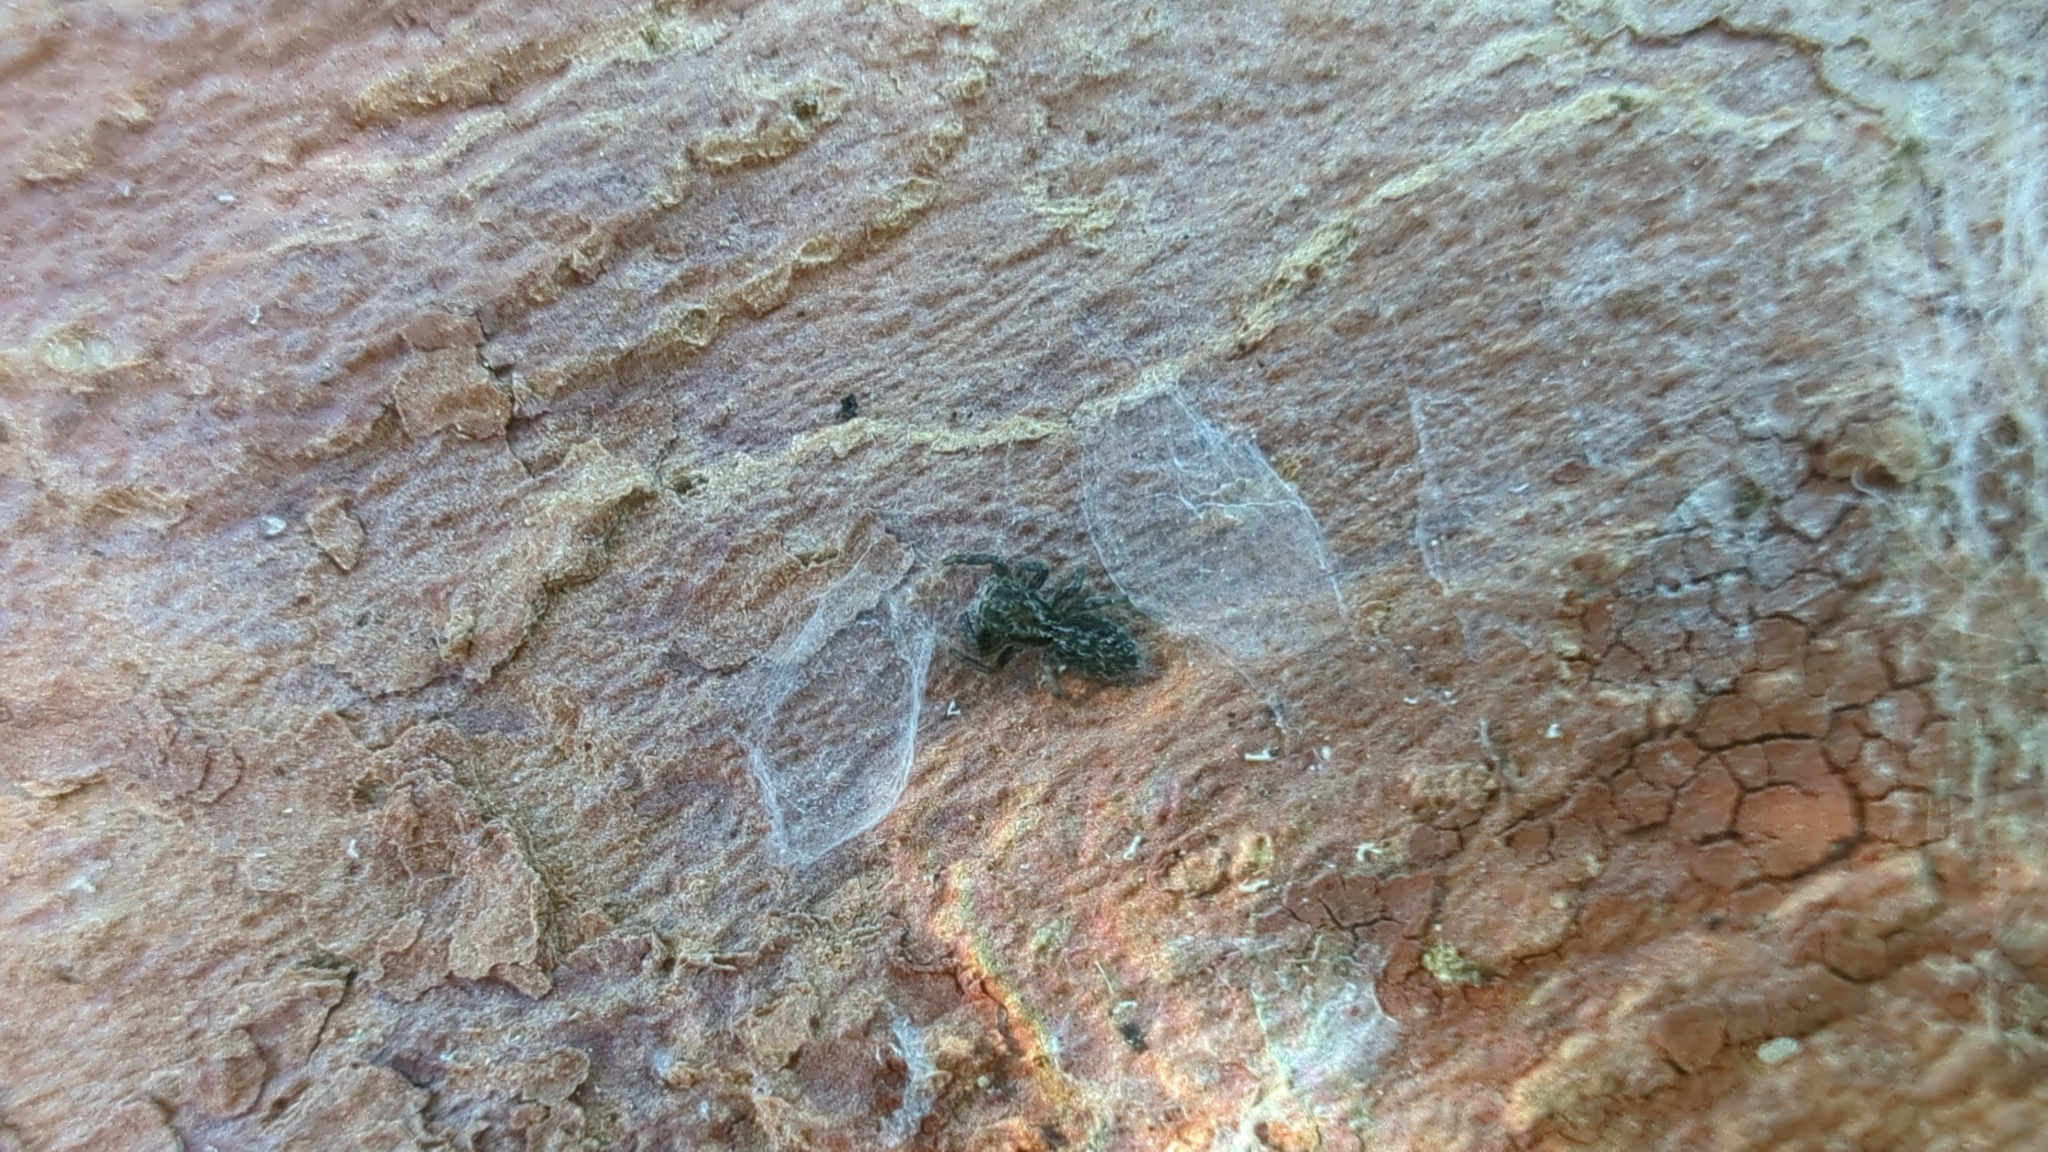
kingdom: Animalia
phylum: Arthropoda
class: Arachnida
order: Araneae
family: Salticidae
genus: Platycryptus
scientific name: Platycryptus californicus
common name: Jumping spiders
